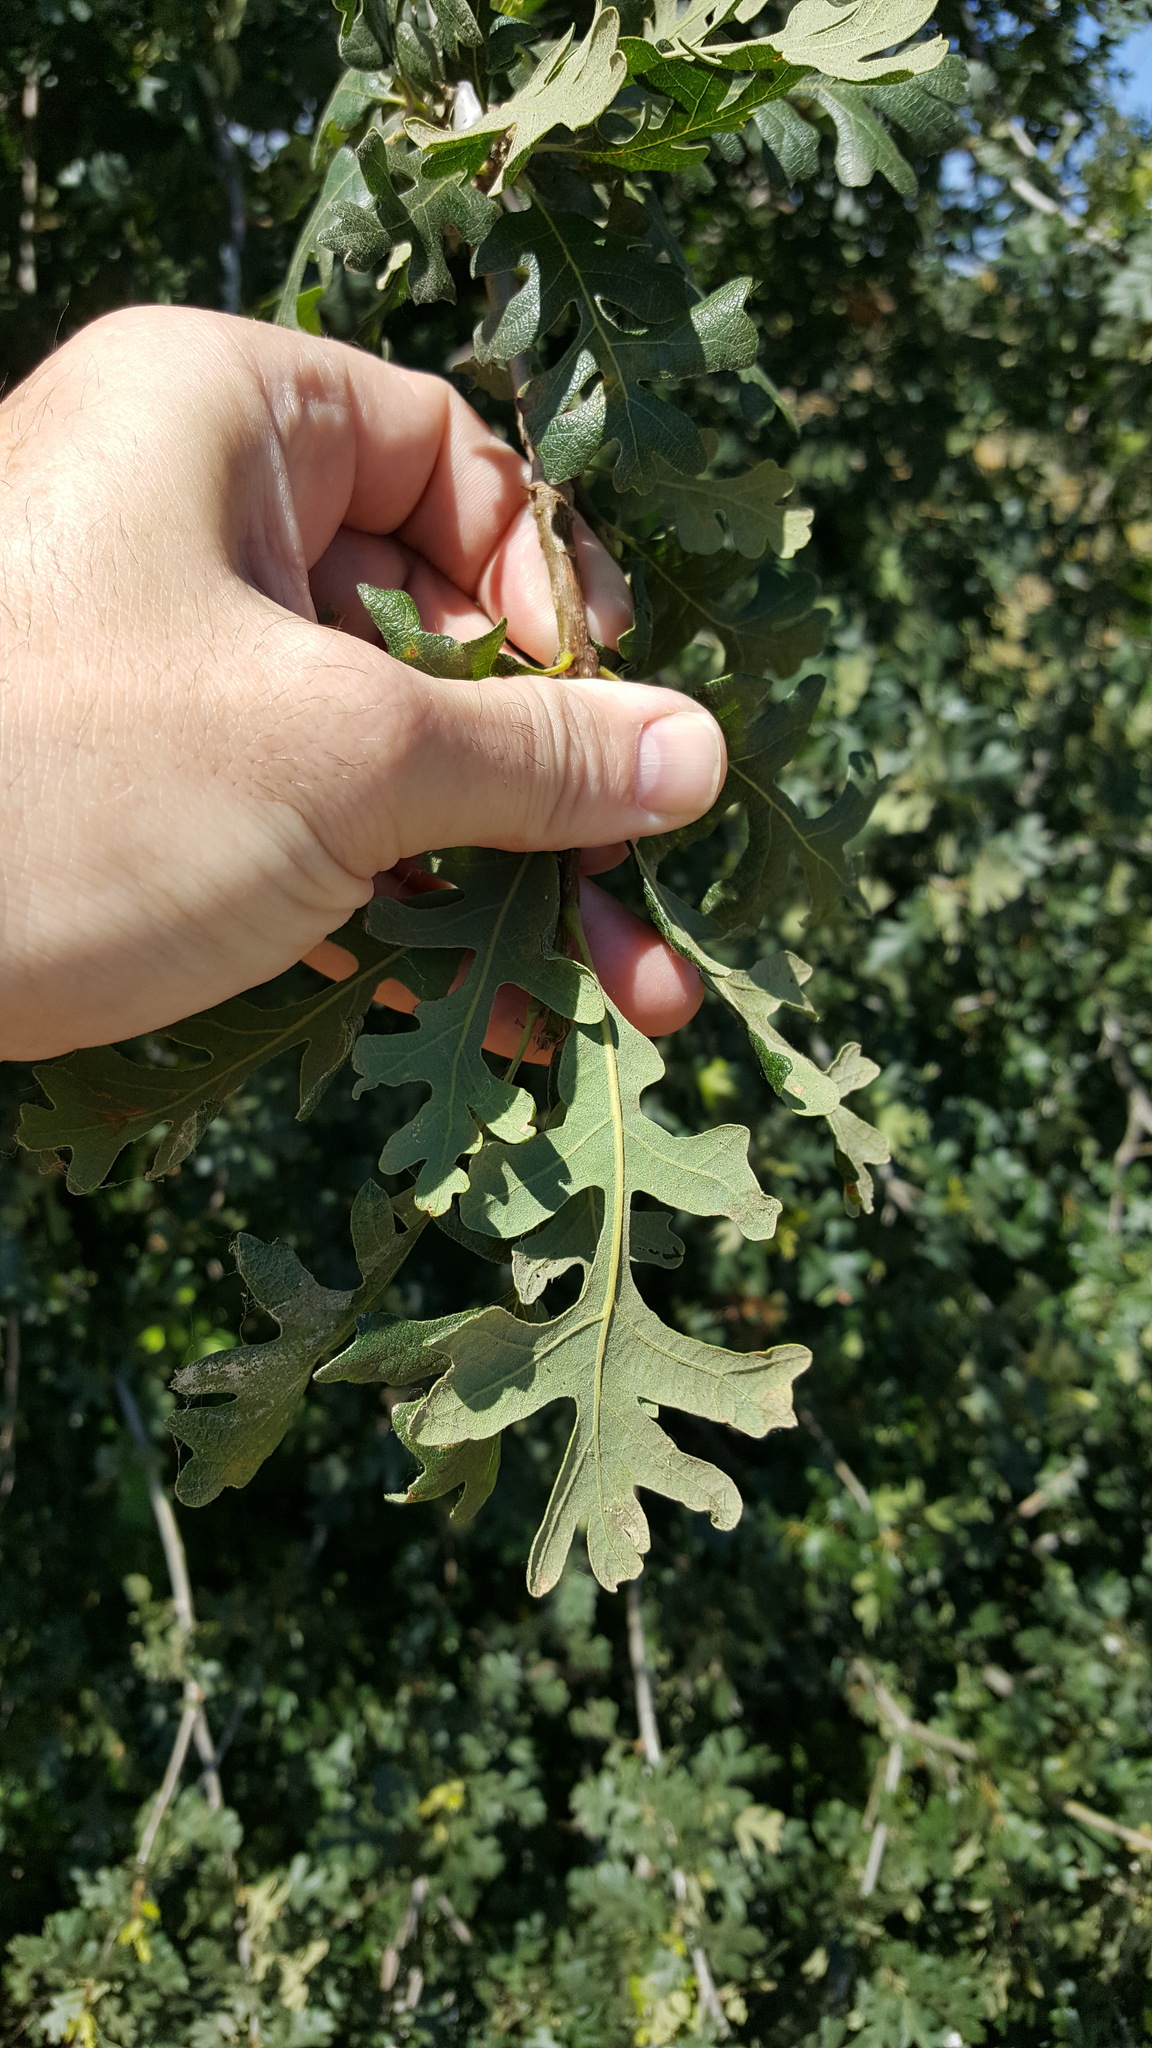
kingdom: Plantae
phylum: Tracheophyta
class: Magnoliopsida
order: Fagales
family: Fagaceae
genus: Quercus
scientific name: Quercus lobata
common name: Valley oak
